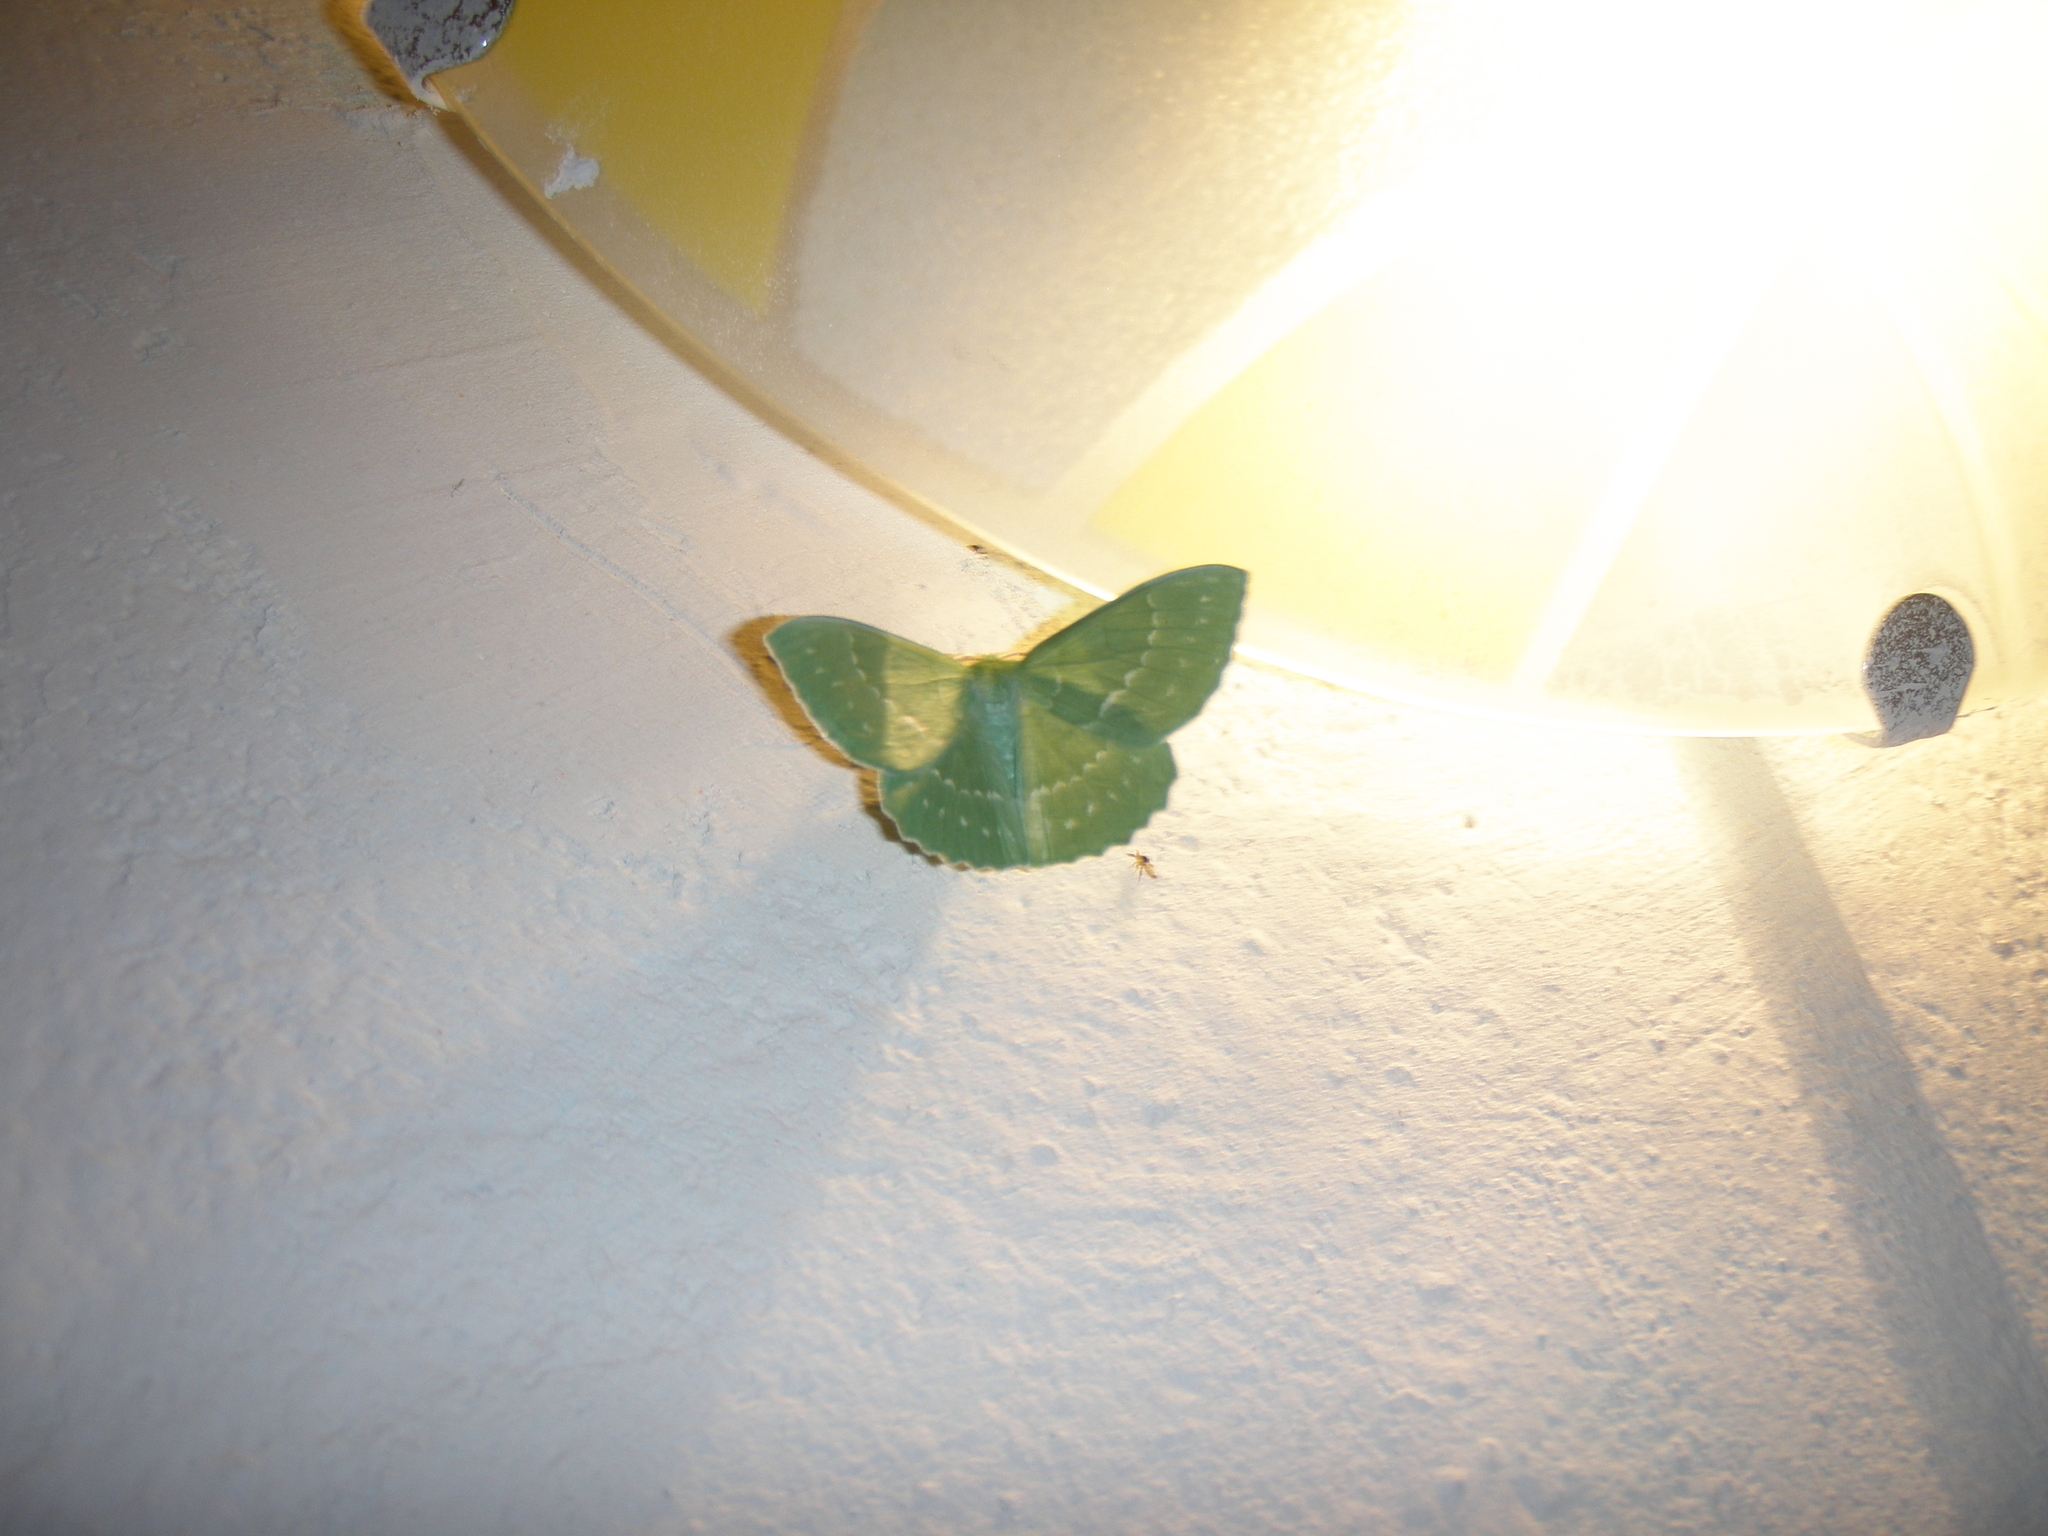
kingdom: Animalia
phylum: Arthropoda
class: Insecta
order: Lepidoptera
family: Geometridae
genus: Geometra
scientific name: Geometra papilionaria
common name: Large emerald
